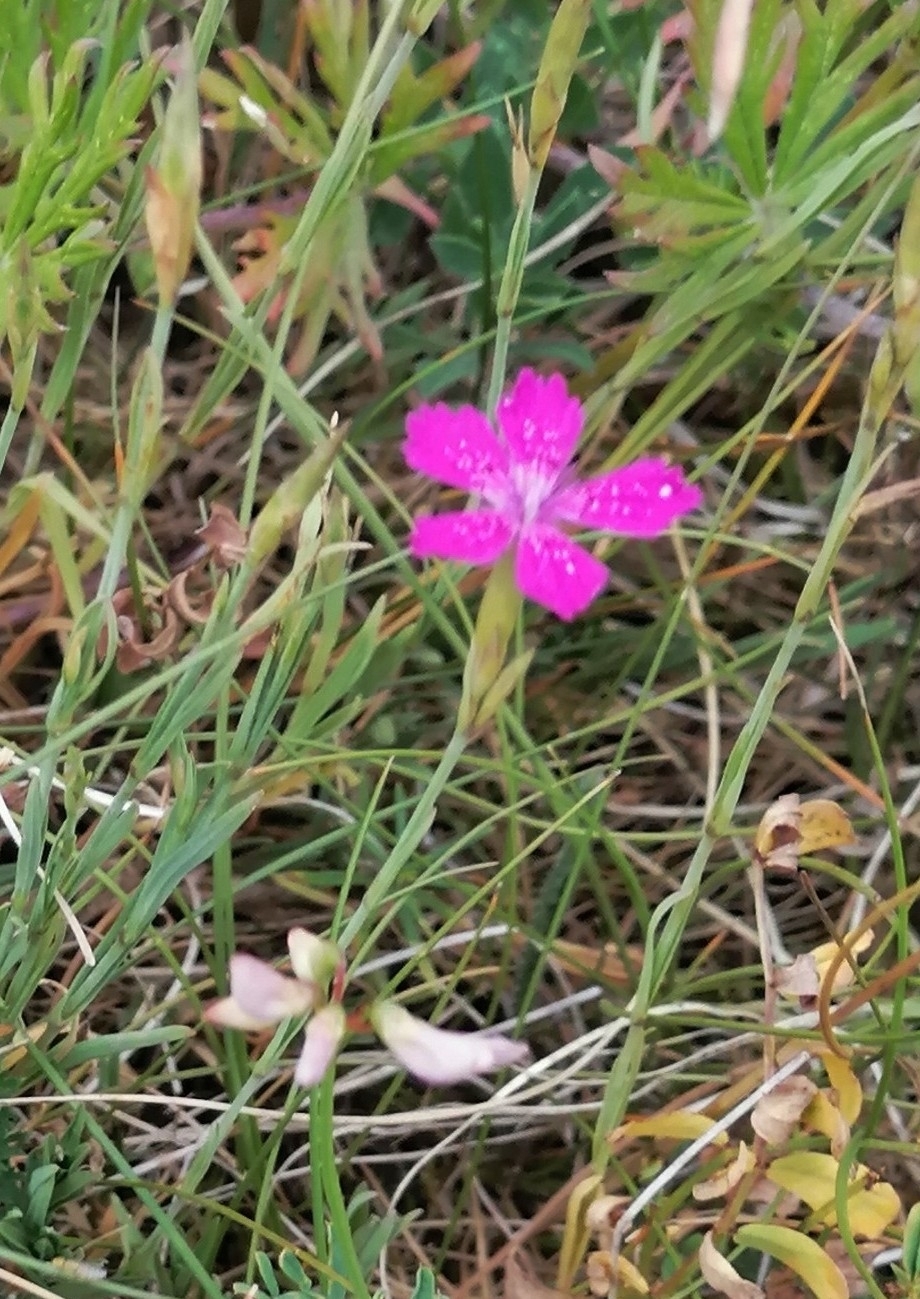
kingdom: Plantae
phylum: Tracheophyta
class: Magnoliopsida
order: Caryophyllales
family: Caryophyllaceae
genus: Dianthus
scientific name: Dianthus deltoides
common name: Maiden pink
